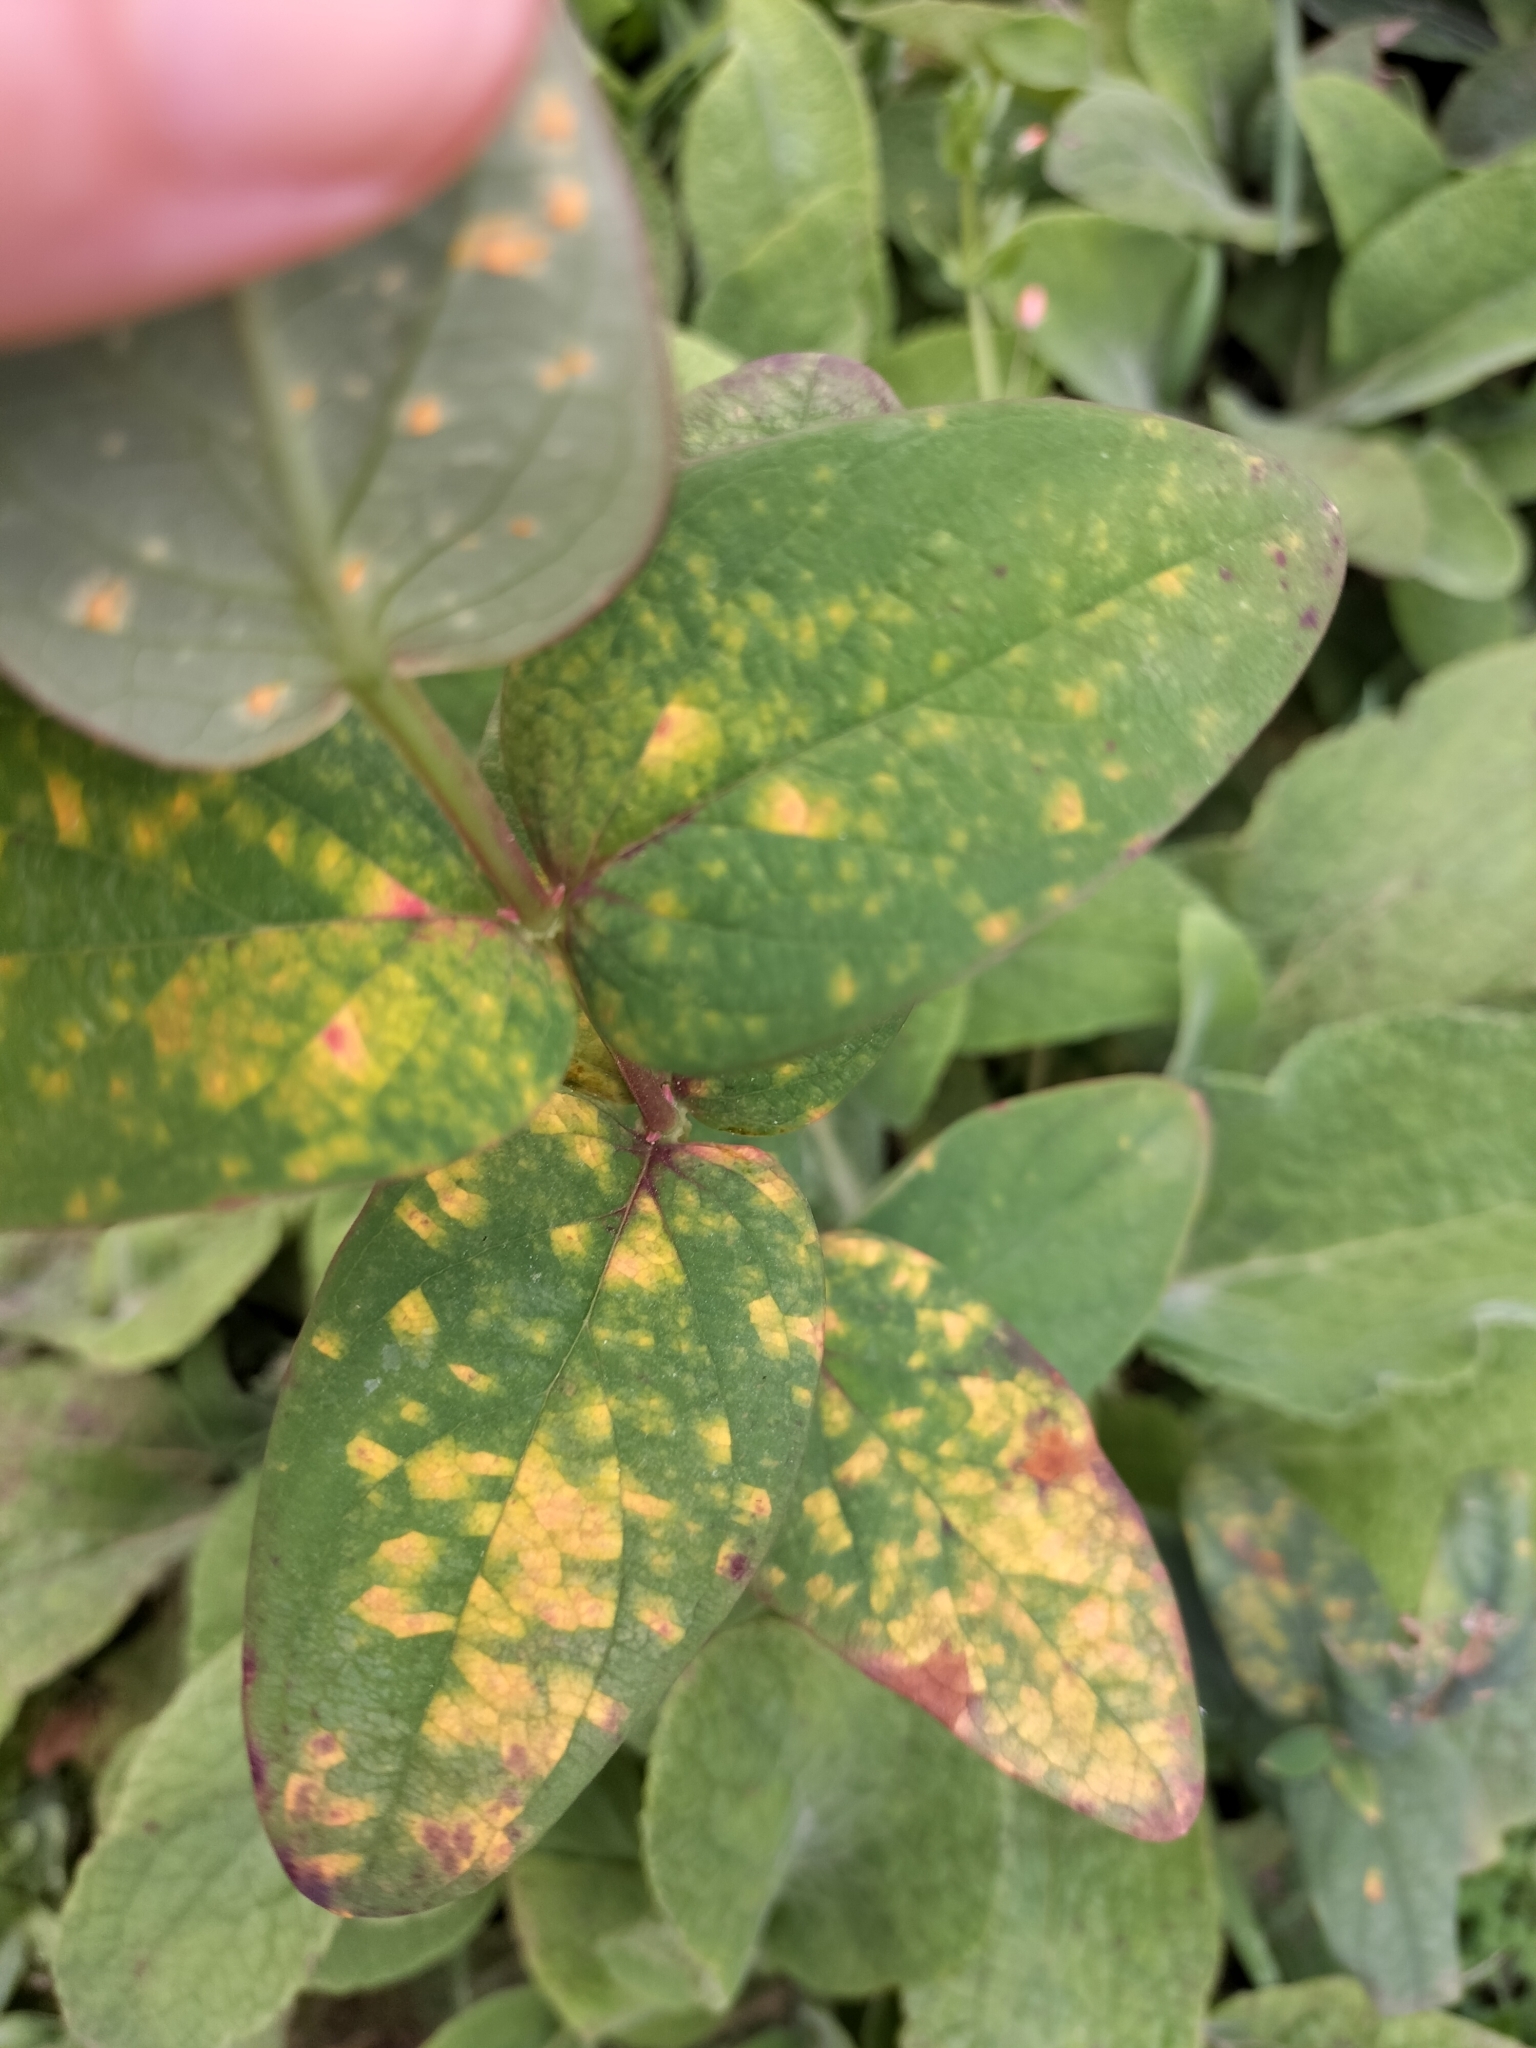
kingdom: Fungi
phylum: Basidiomycota
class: Pucciniomycetes
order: Pucciniales
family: Melampsoraceae
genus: Melampsora
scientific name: Melampsora hypericorum
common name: Tutsan rust
